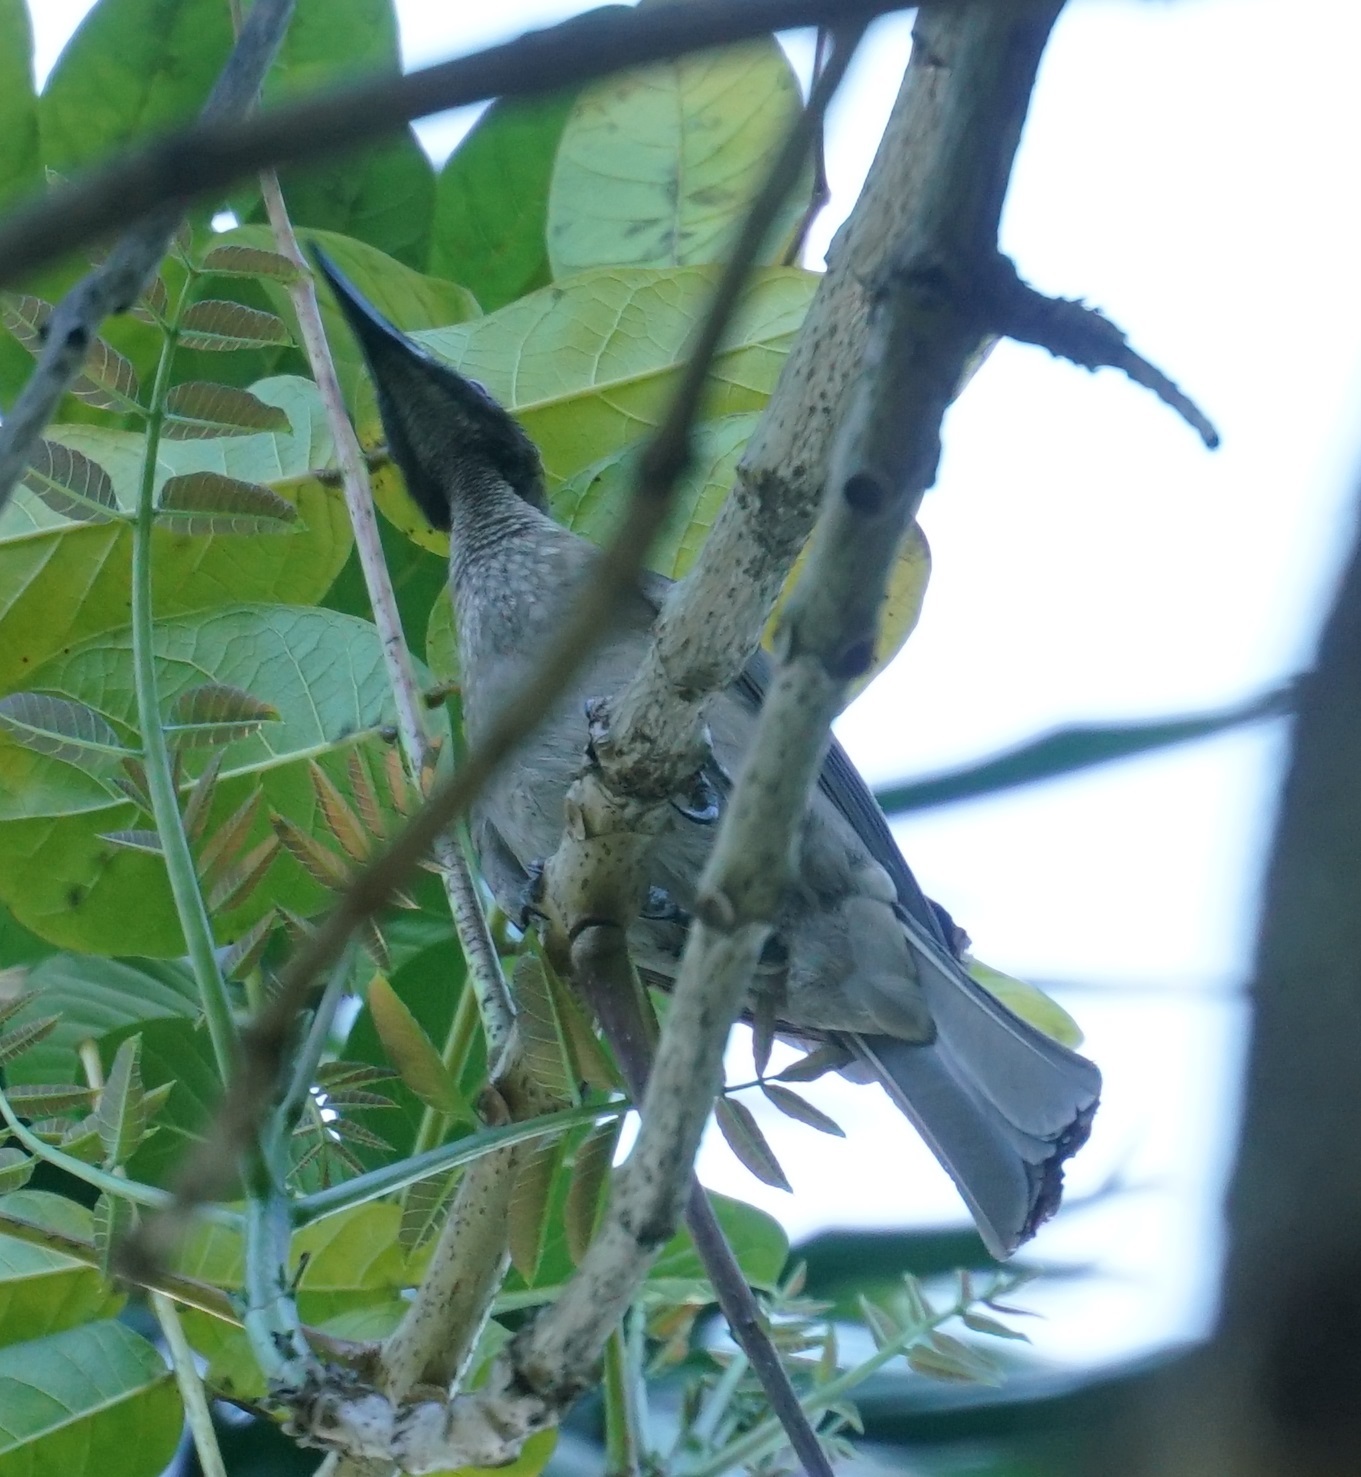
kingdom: Animalia
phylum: Chordata
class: Aves
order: Passeriformes
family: Meliphagidae
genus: Philemon
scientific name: Philemon buceroides
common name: Helmeted friarbird
